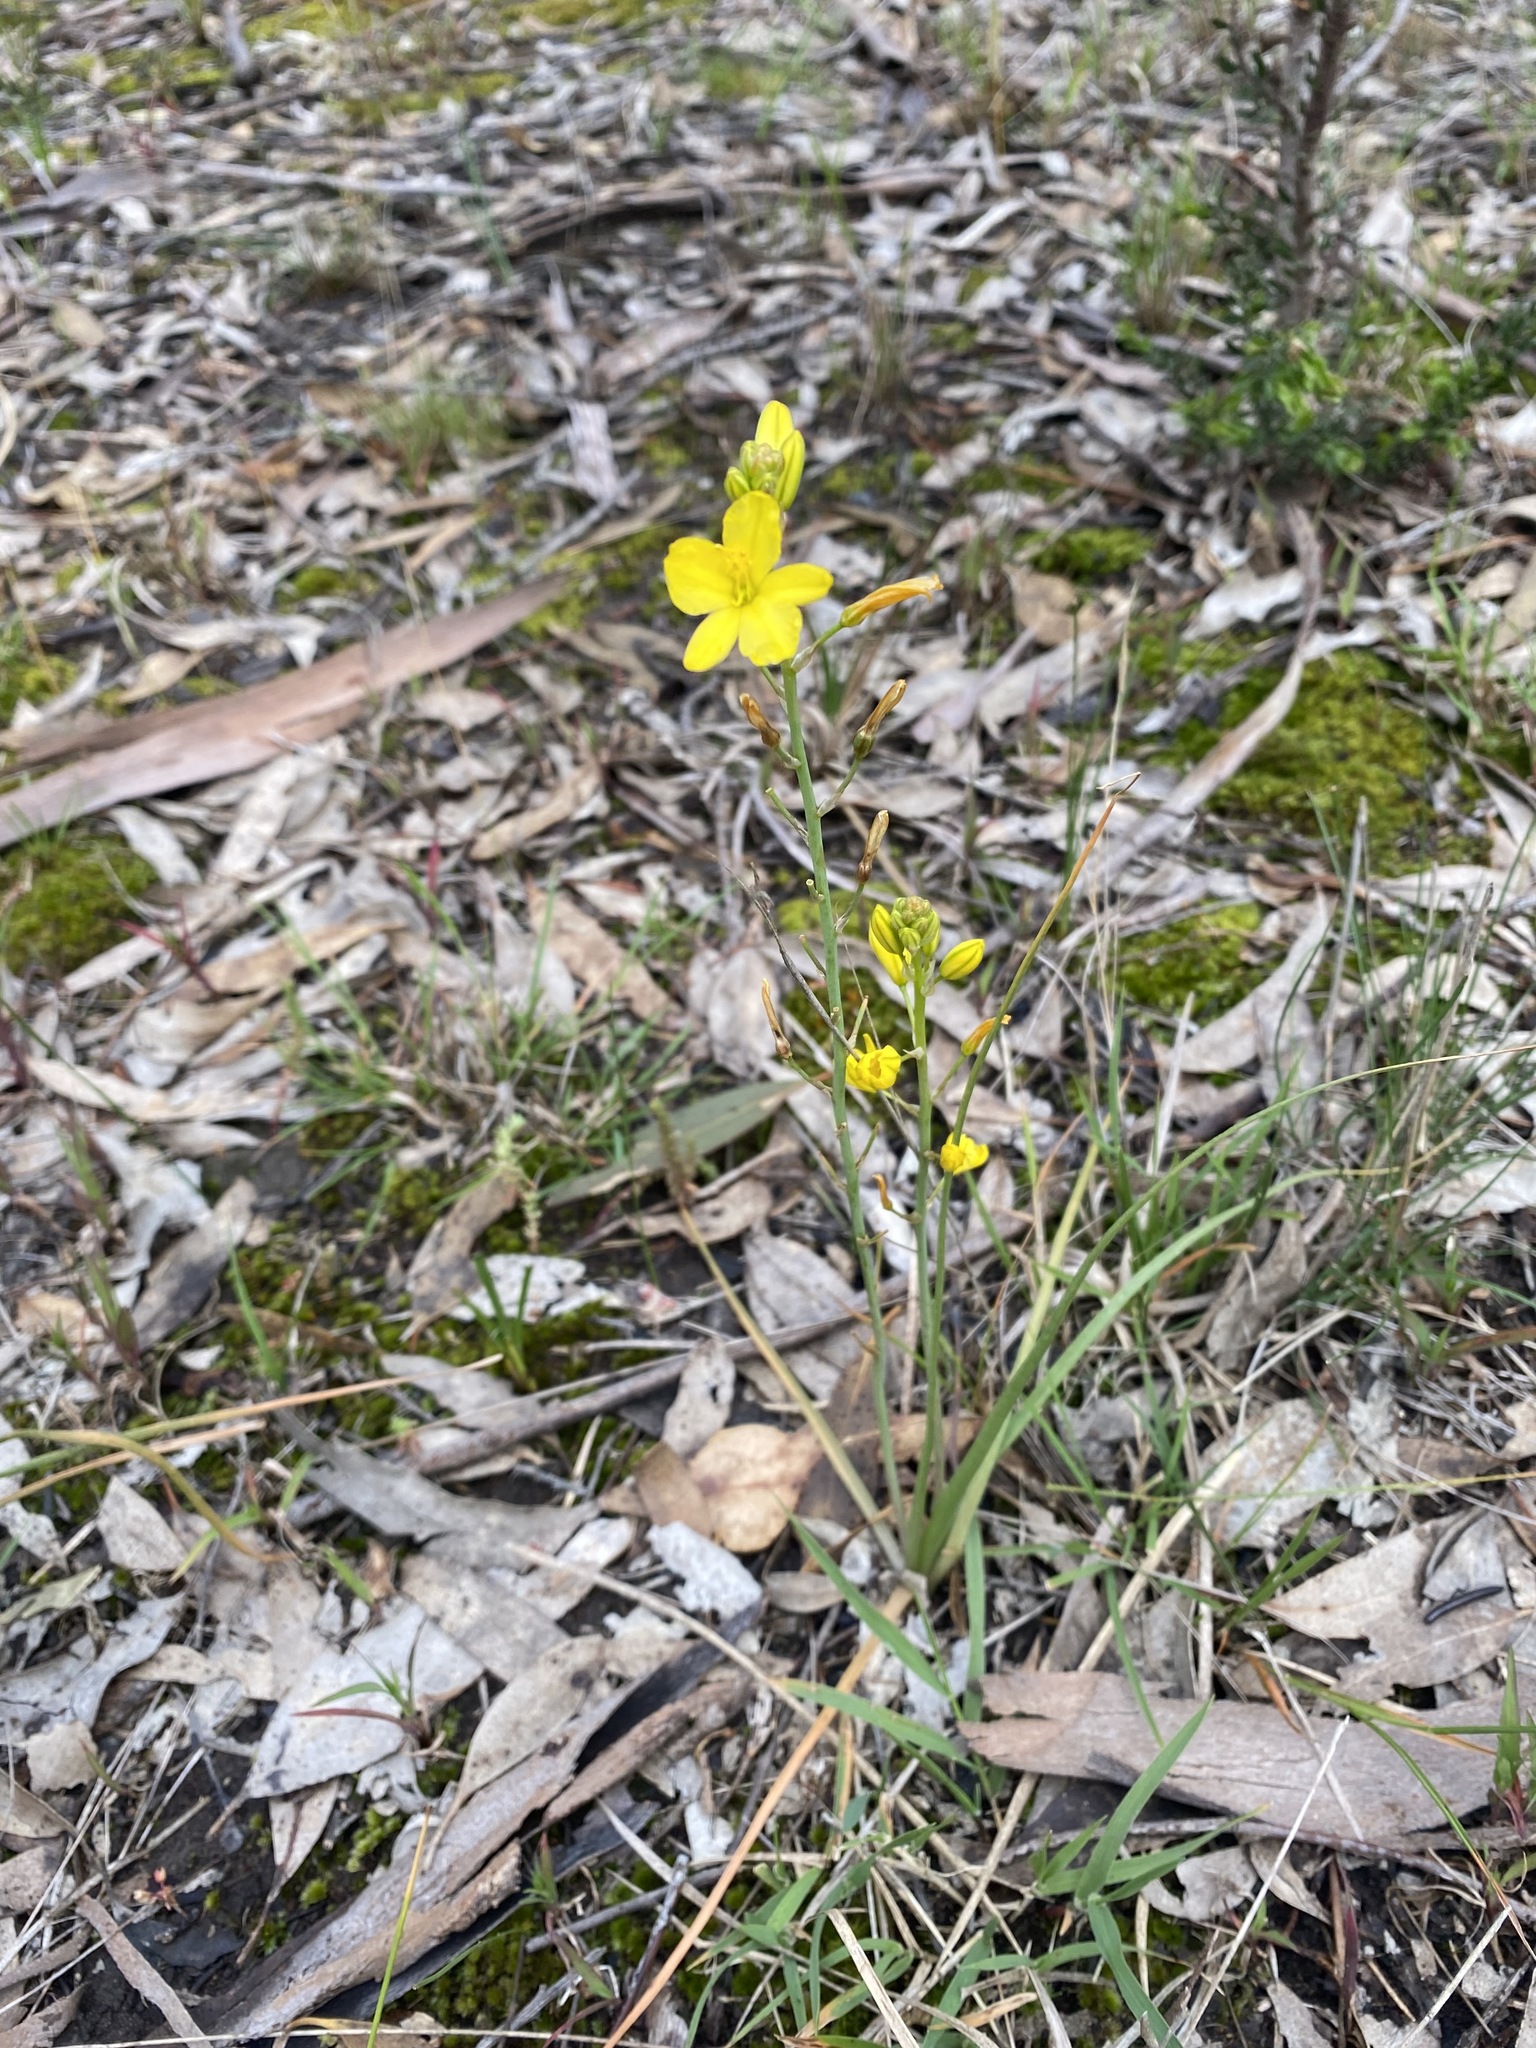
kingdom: Plantae
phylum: Tracheophyta
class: Liliopsida
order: Asparagales
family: Asphodelaceae
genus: Bulbine
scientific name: Bulbine bulbosa
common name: Golden-lily
